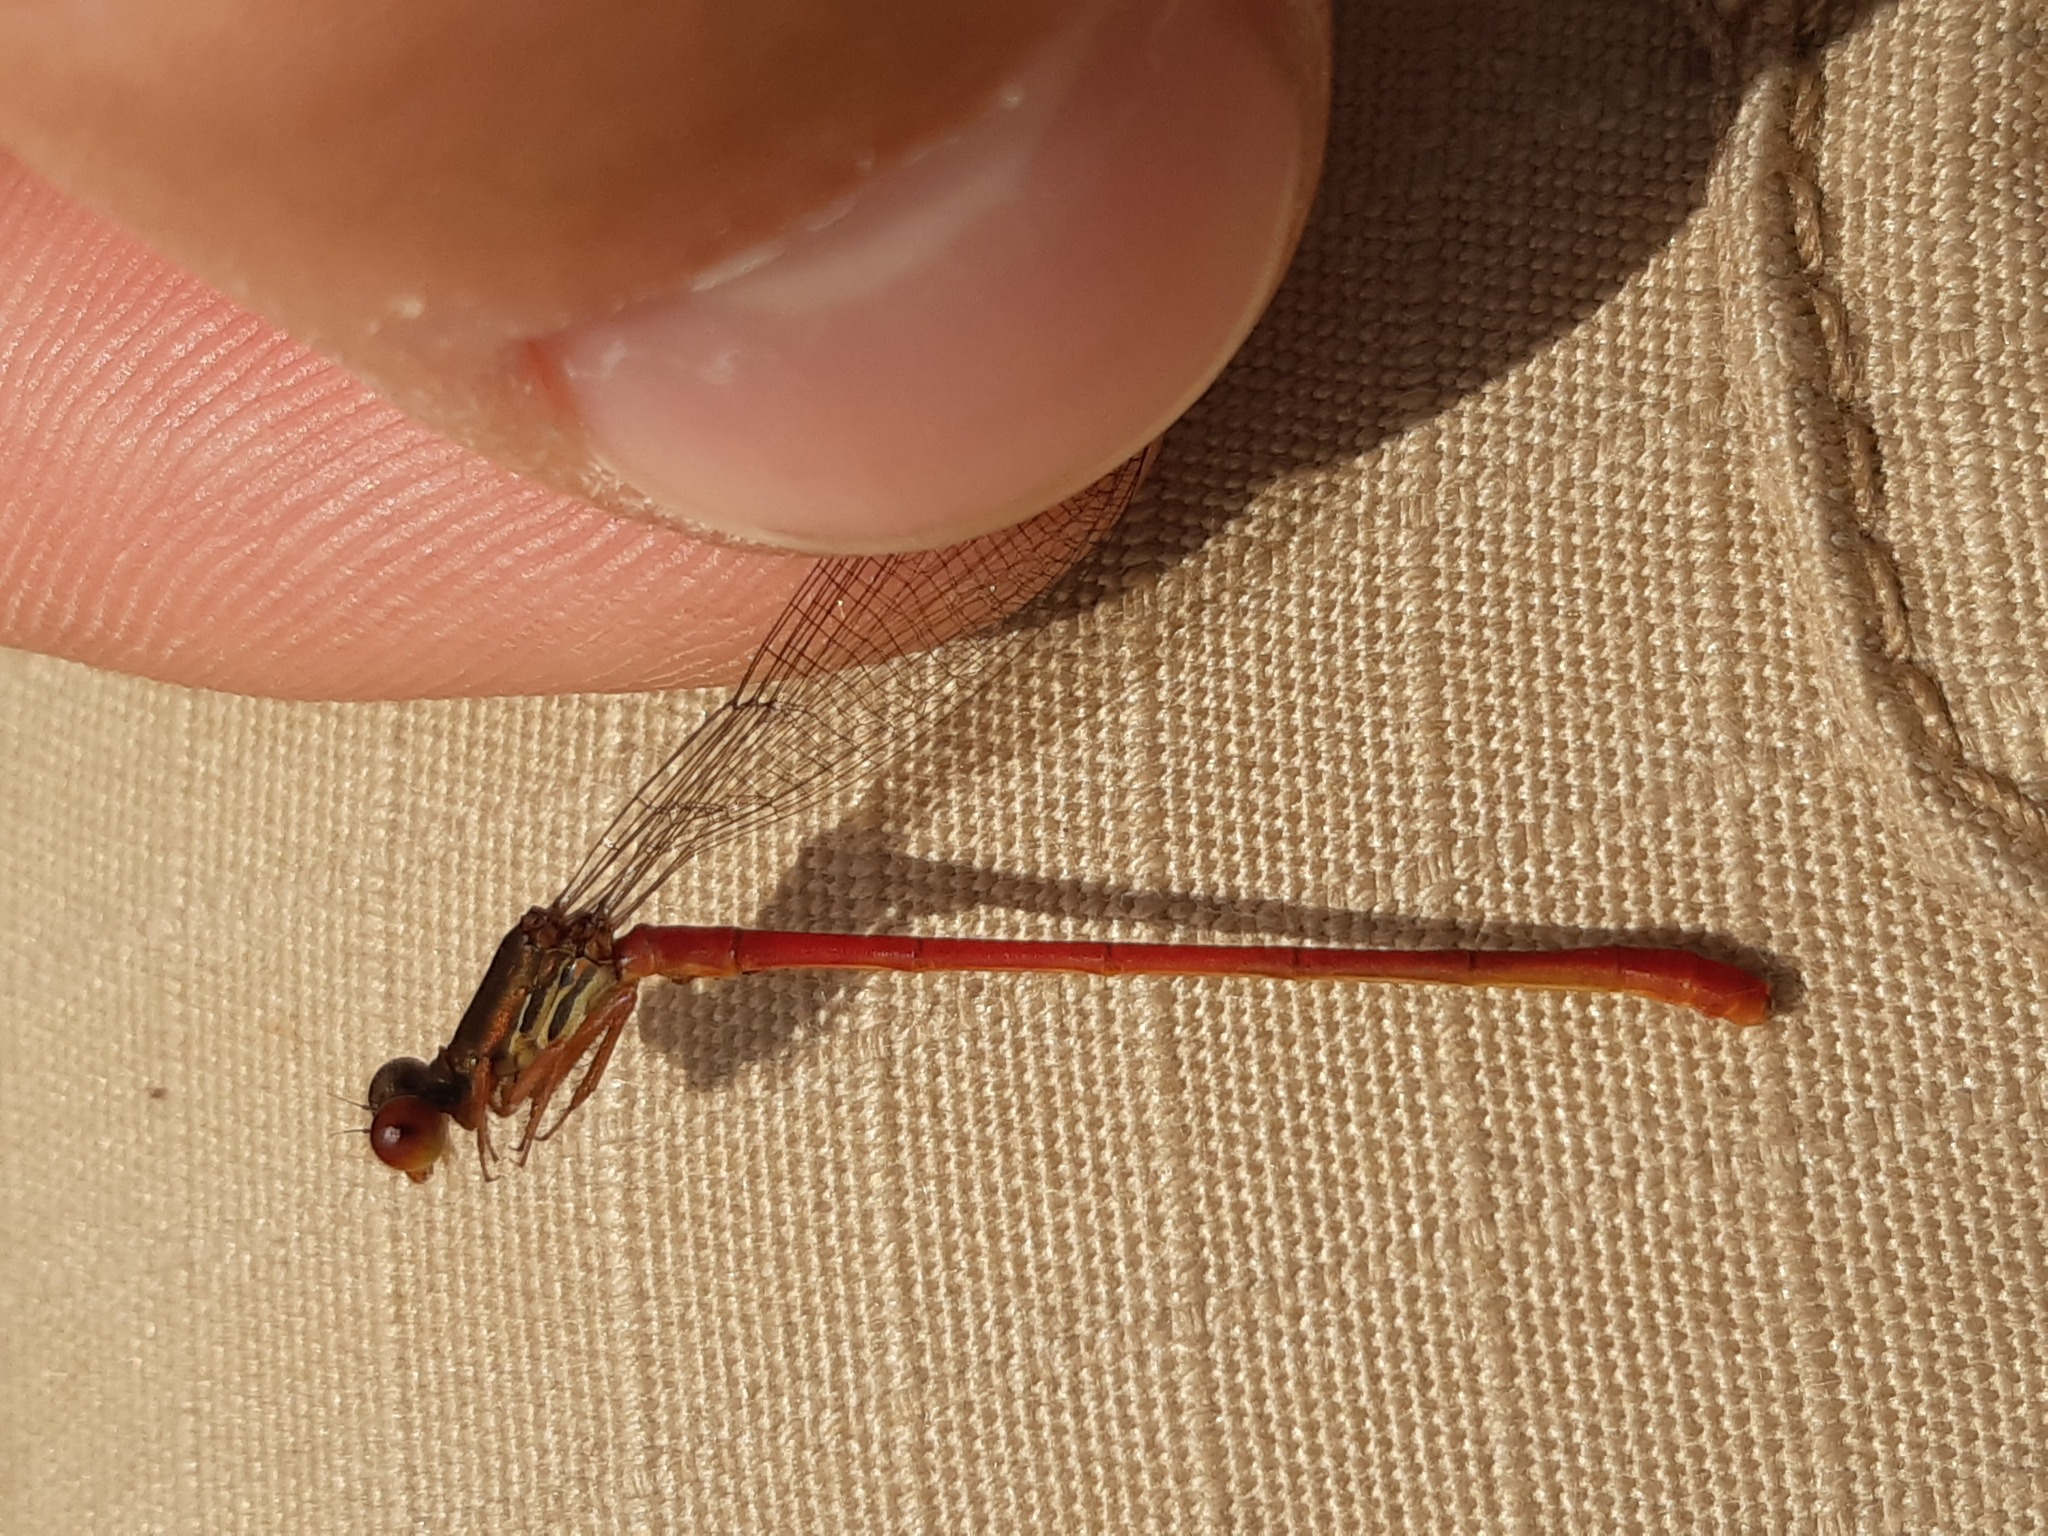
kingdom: Animalia
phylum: Arthropoda
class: Insecta
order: Odonata
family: Coenagrionidae
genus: Ceriagrion
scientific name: Ceriagrion tenellum
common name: Small red damselfly
